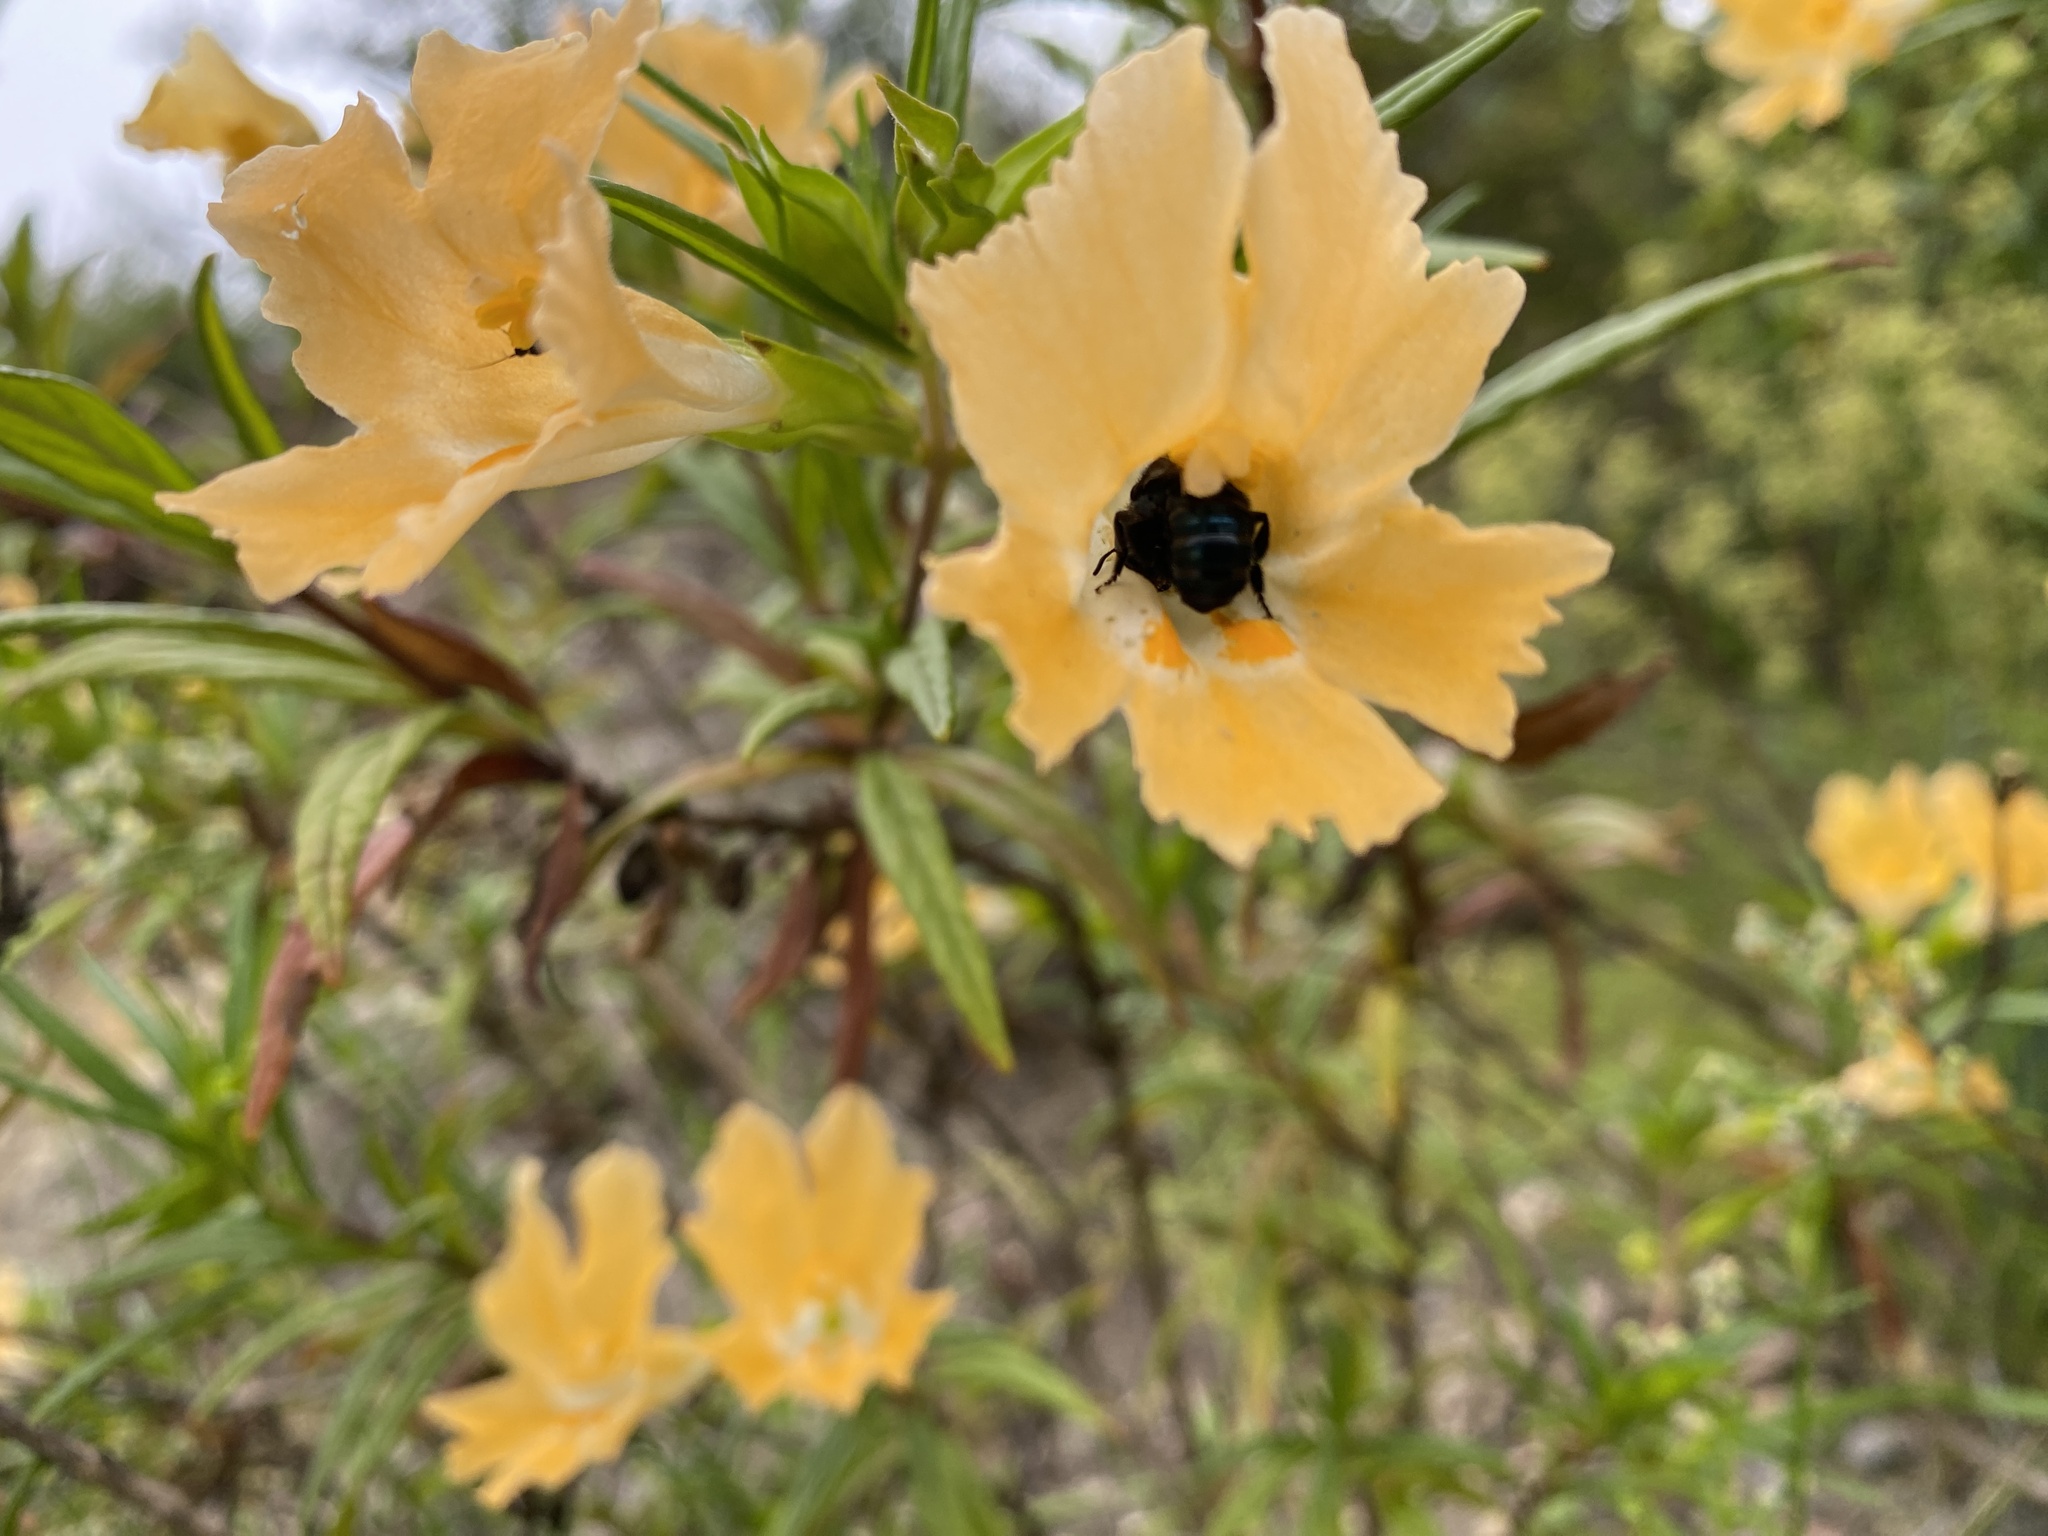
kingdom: Plantae
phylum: Tracheophyta
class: Magnoliopsida
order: Lamiales
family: Phrymaceae
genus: Diplacus
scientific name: Diplacus australis
